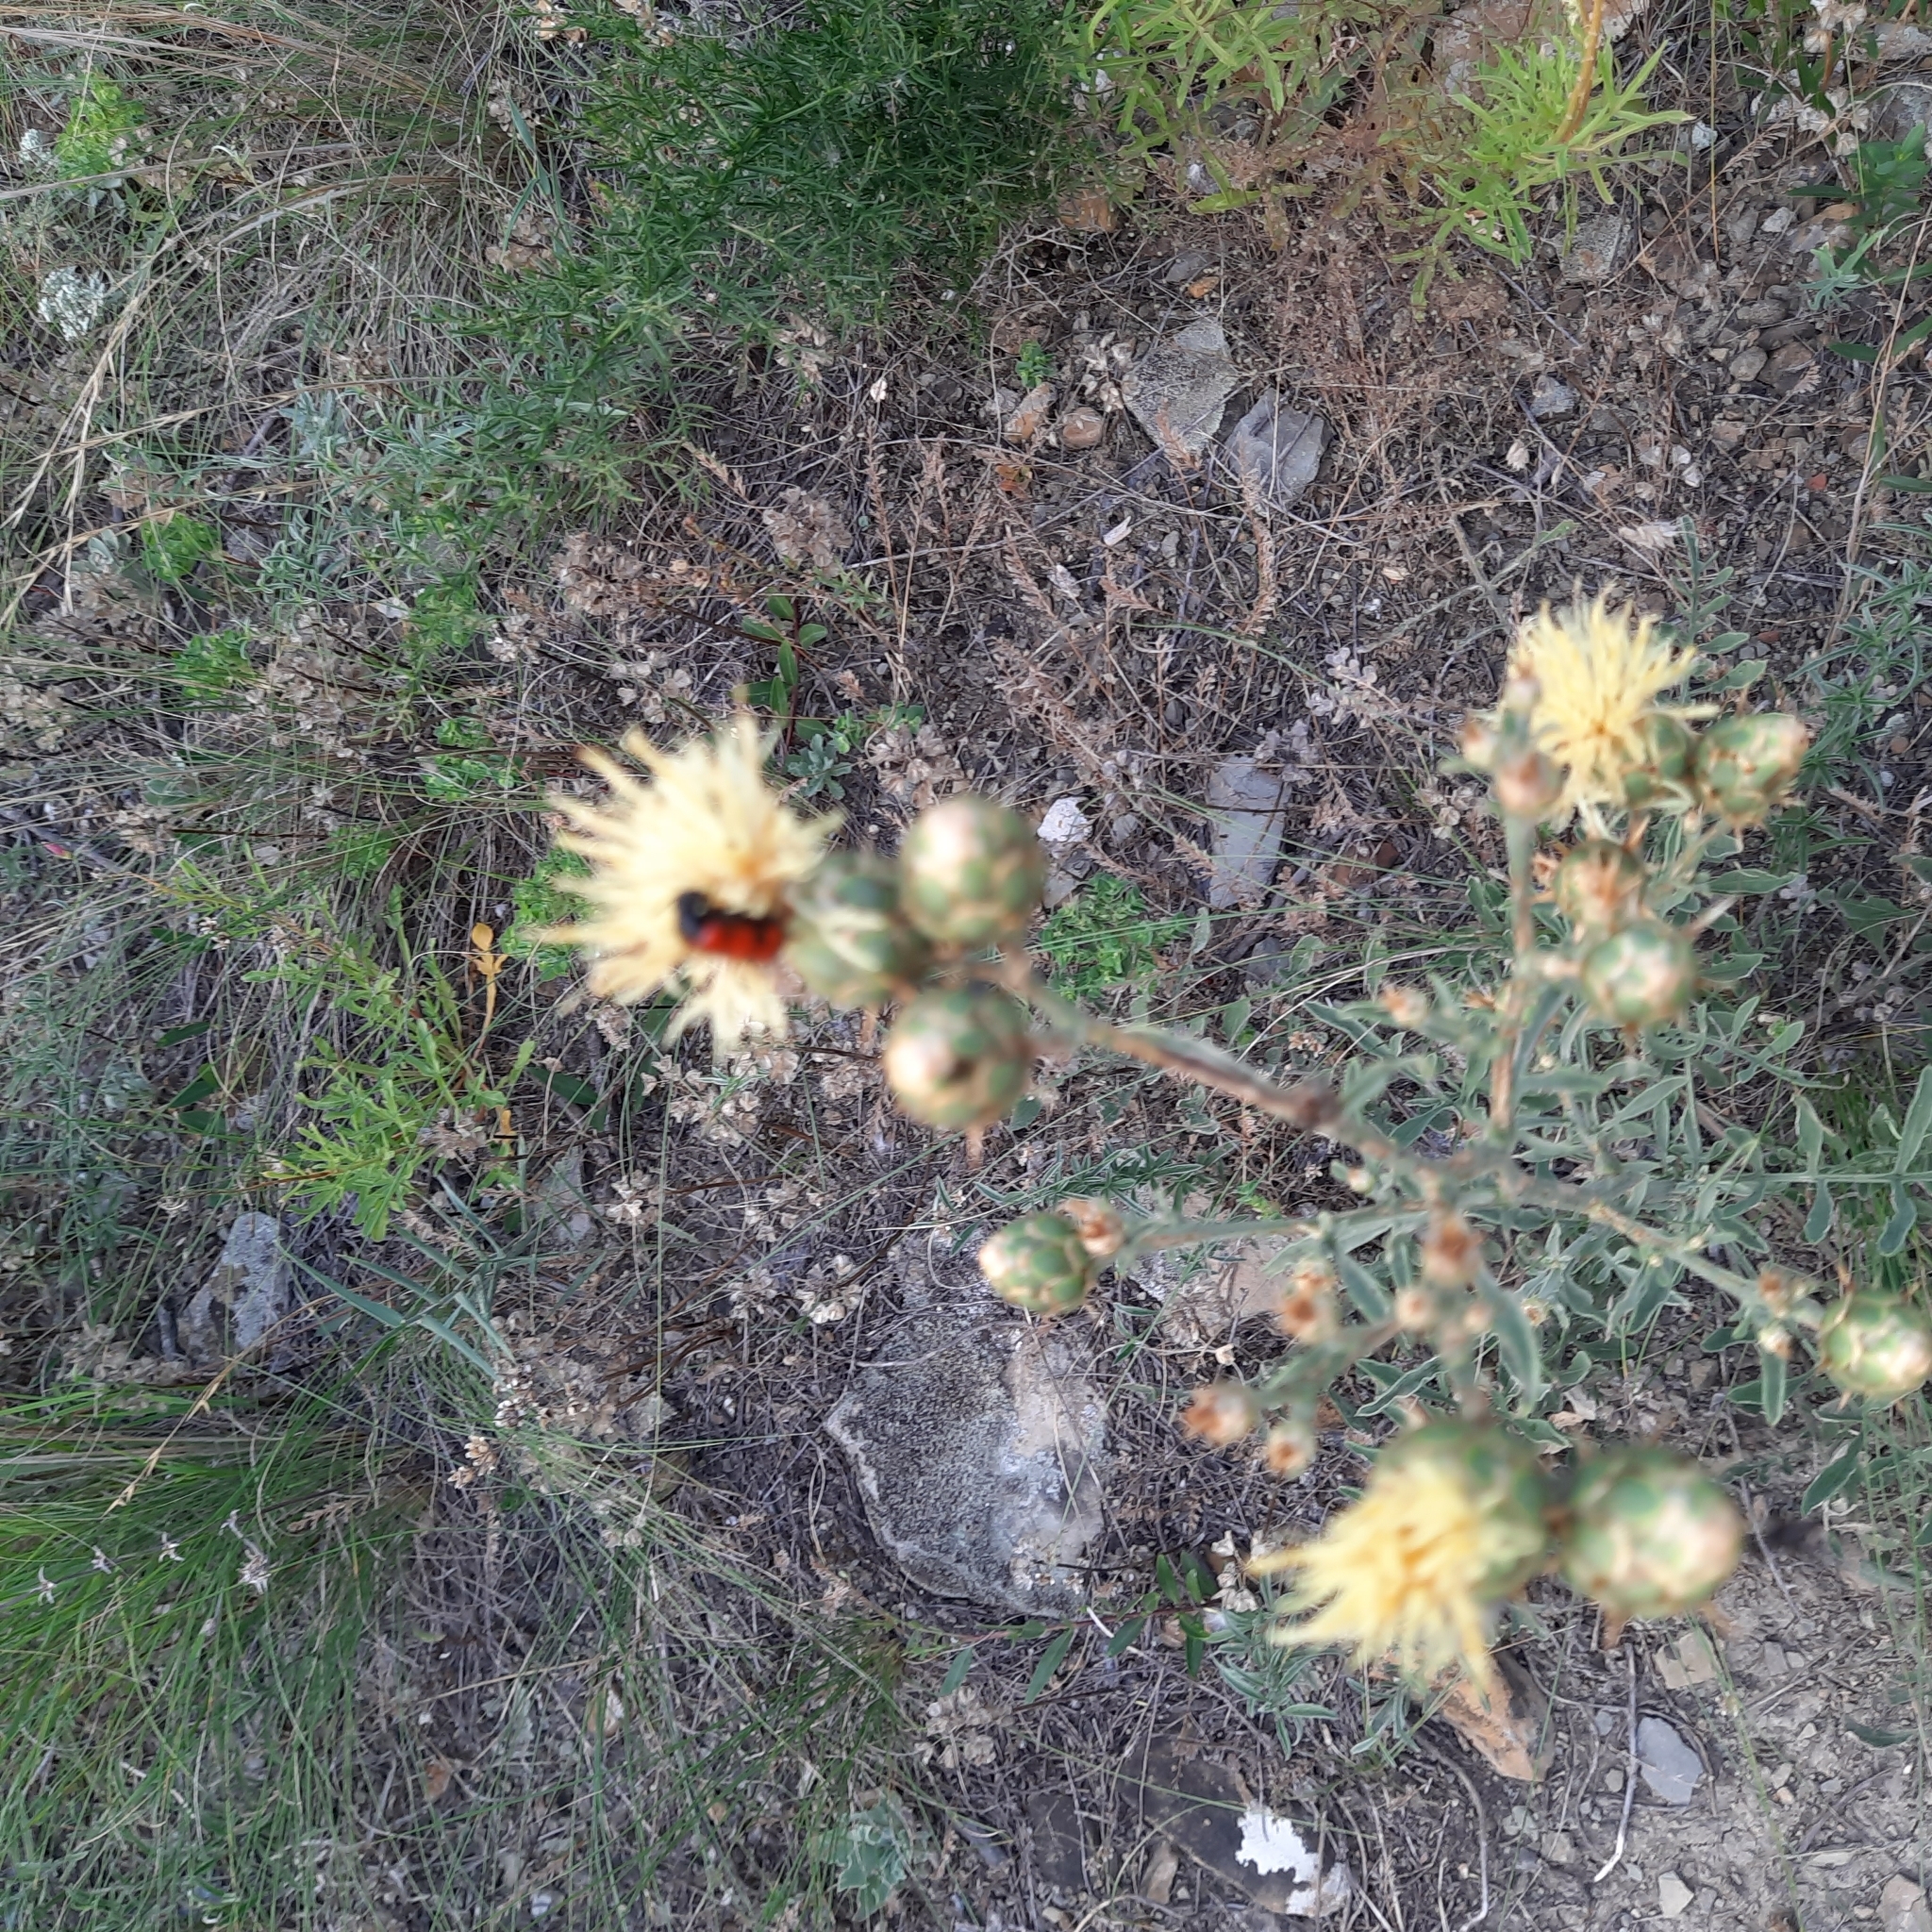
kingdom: Plantae
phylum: Tracheophyta
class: Magnoliopsida
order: Asterales
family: Asteraceae
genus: Centaurea
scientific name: Centaurea salonitana
